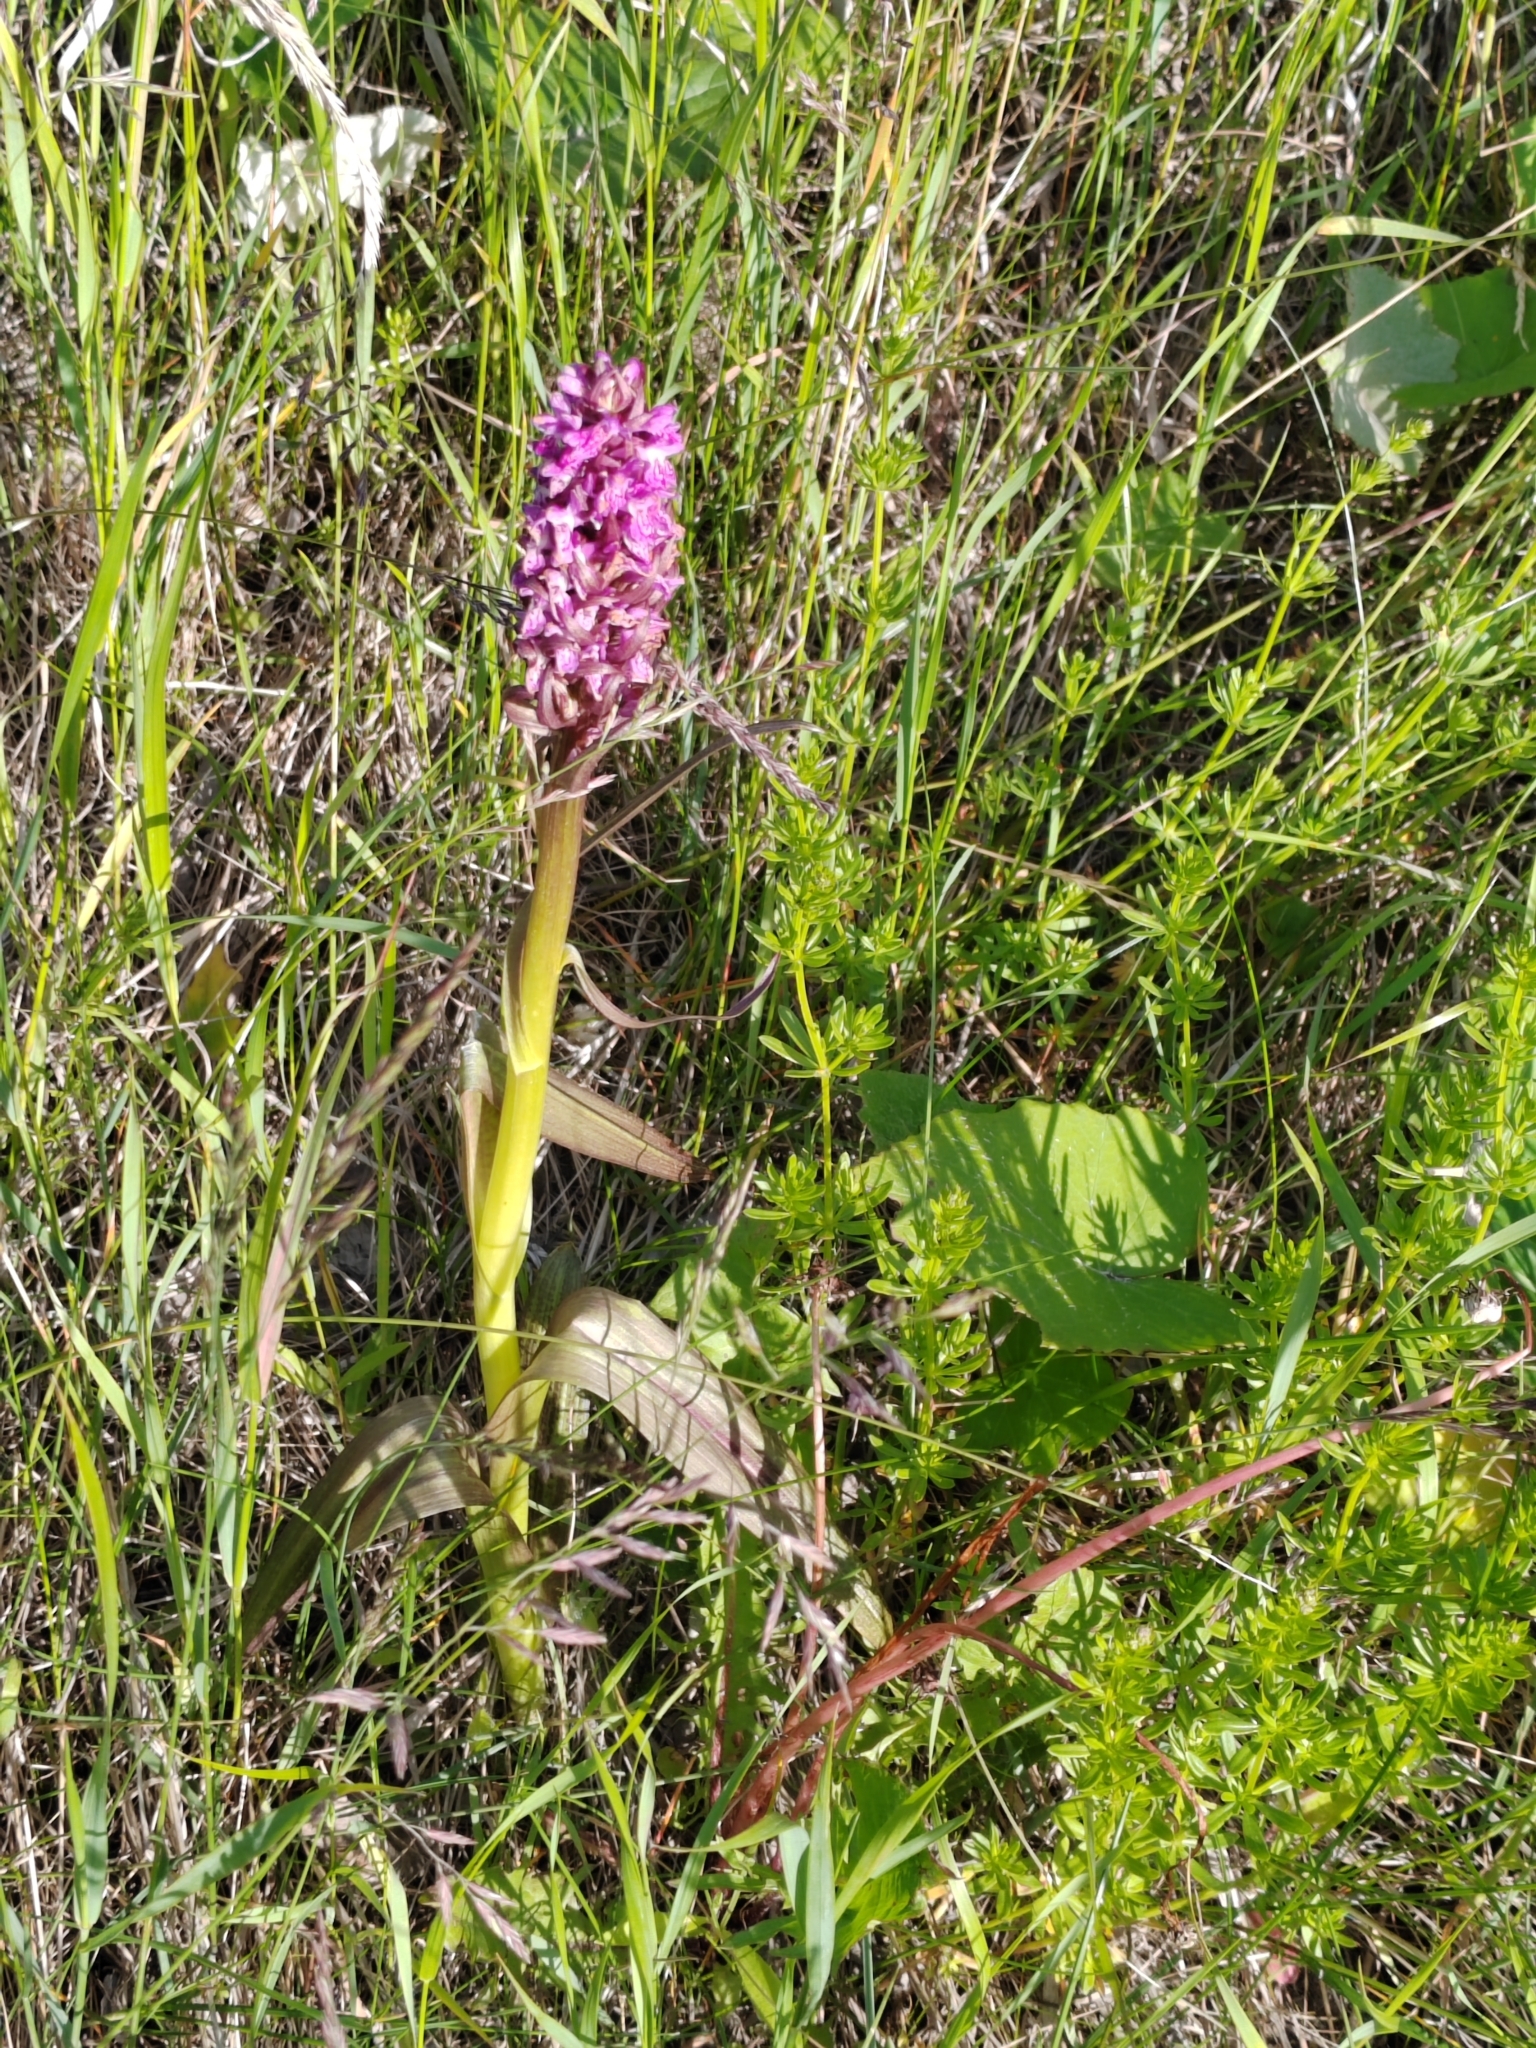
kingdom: Plantae
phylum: Tracheophyta
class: Liliopsida
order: Asparagales
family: Orchidaceae
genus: Dactylorhiza
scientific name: Dactylorhiza incarnata
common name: Early marsh-orchid
